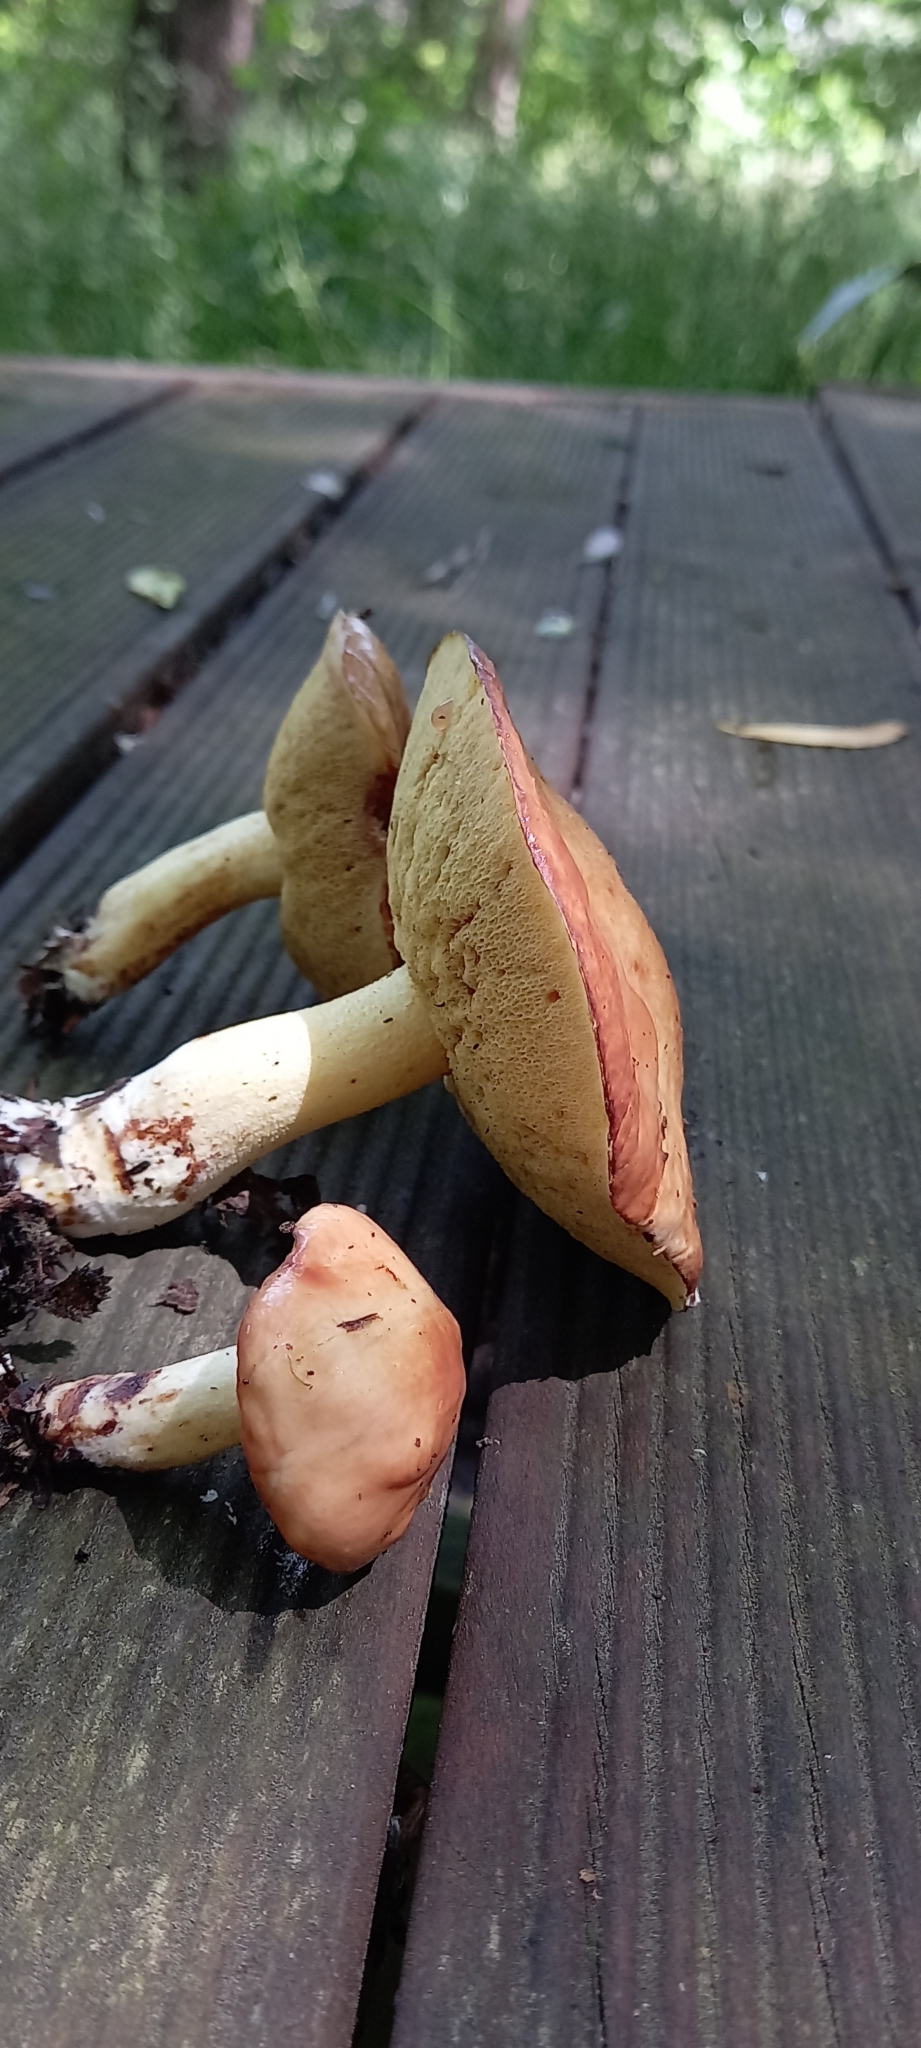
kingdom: Fungi
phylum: Basidiomycota
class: Agaricomycetes
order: Boletales
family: Suillaceae
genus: Suillus
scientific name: Suillus granulatus
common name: Weeping bolete
